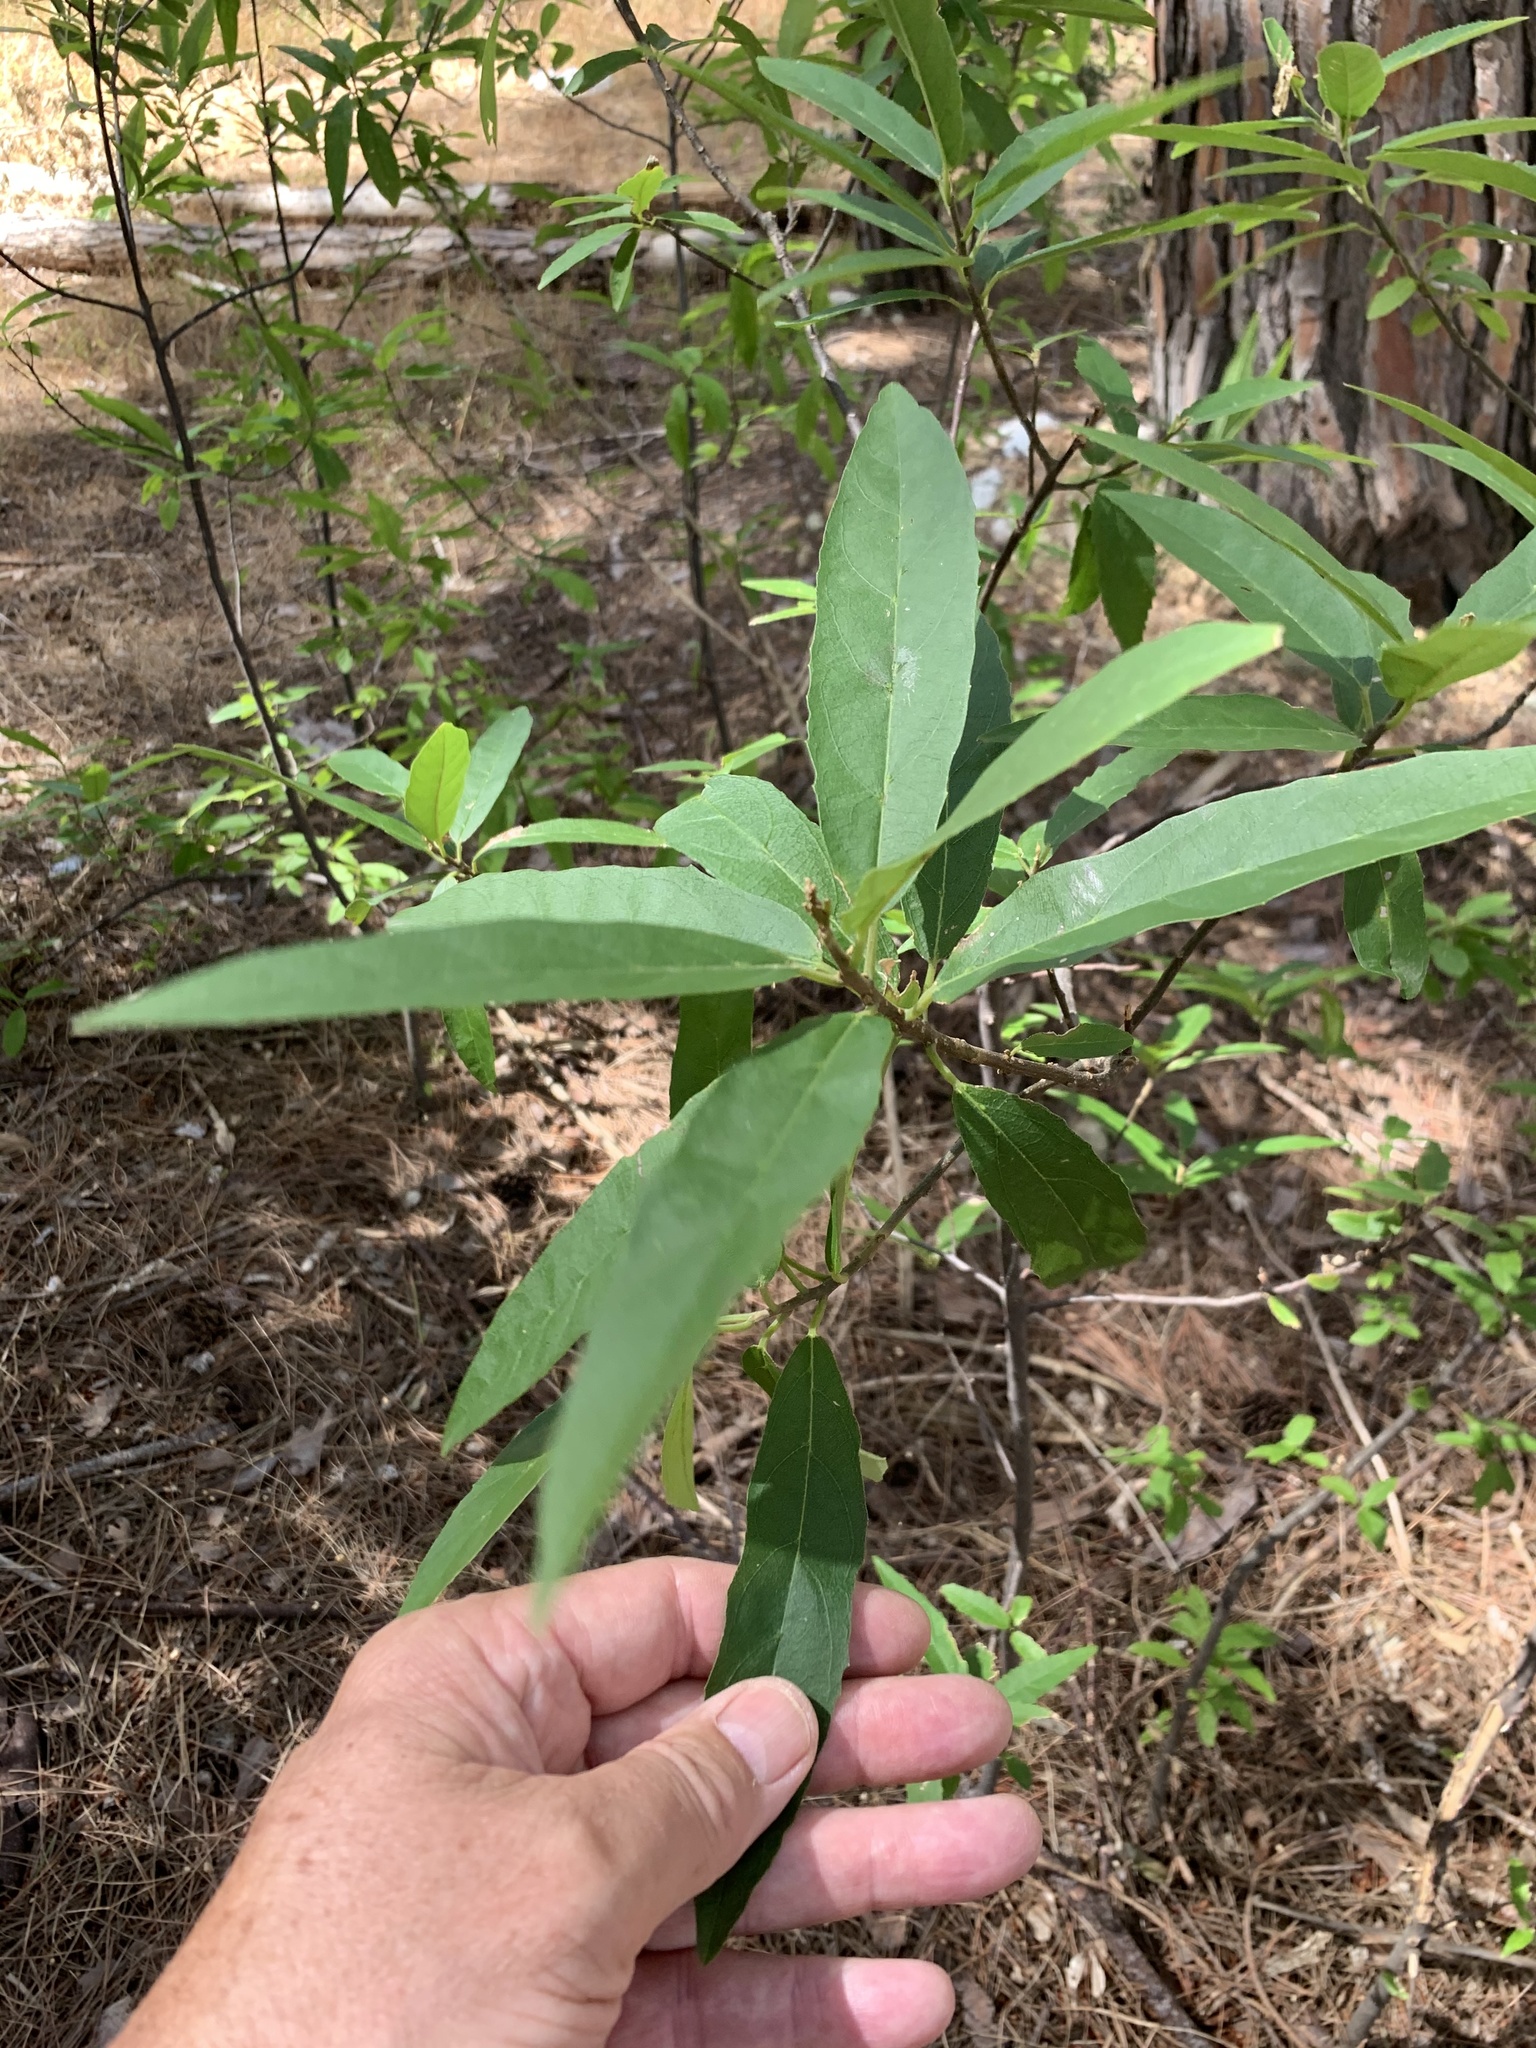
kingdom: Plantae
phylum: Tracheophyta
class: Magnoliopsida
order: Malpighiales
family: Achariaceae
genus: Kiggelaria
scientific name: Kiggelaria africana
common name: Wild peach
